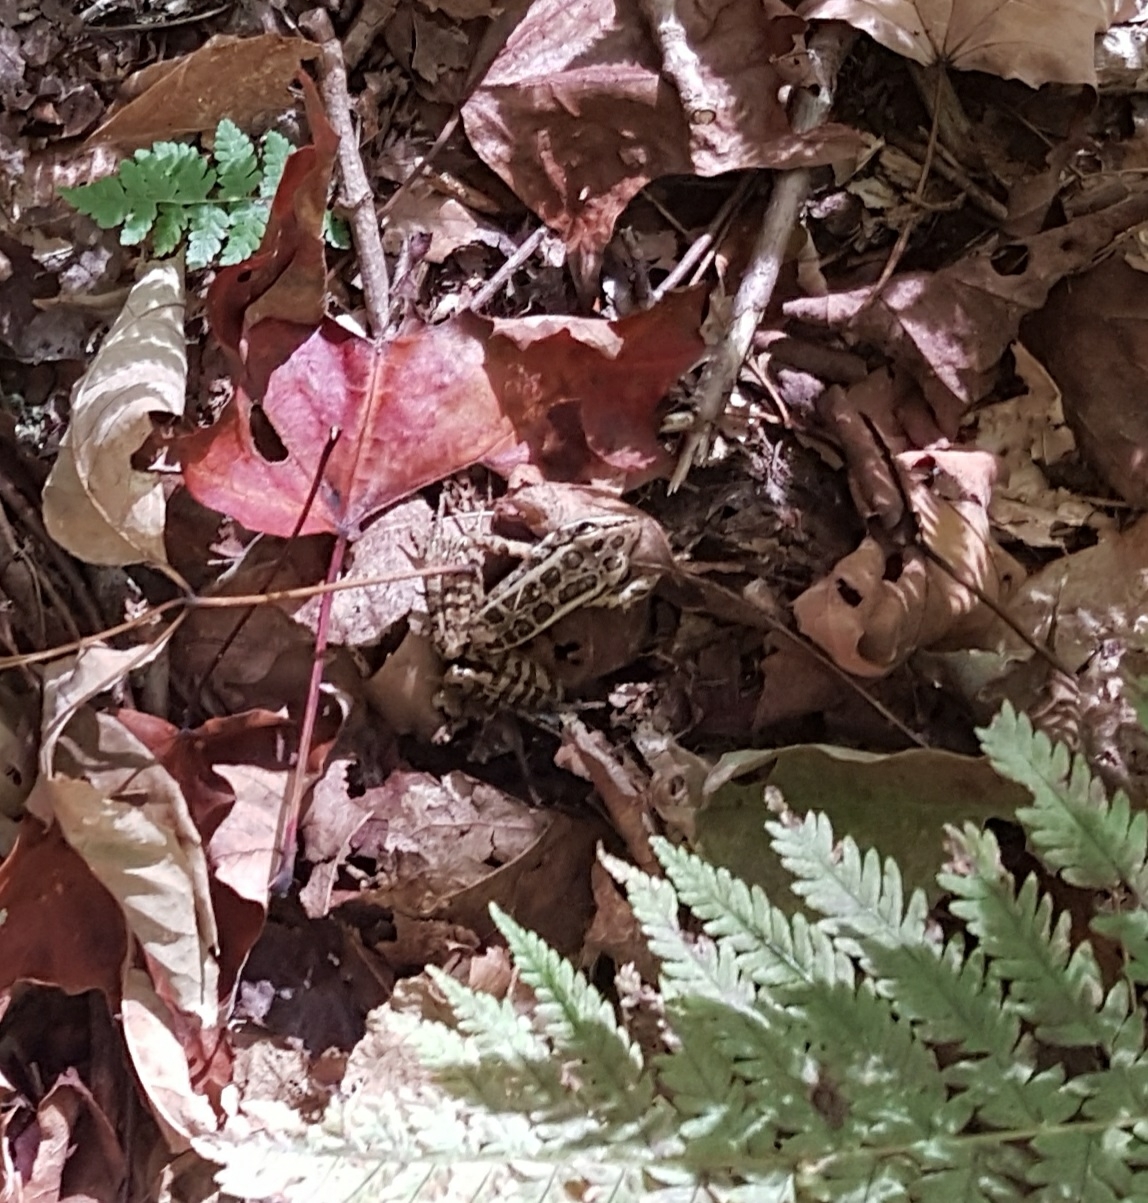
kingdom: Animalia
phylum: Chordata
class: Amphibia
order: Anura
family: Ranidae
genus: Lithobates
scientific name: Lithobates palustris
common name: Pickerel frog
